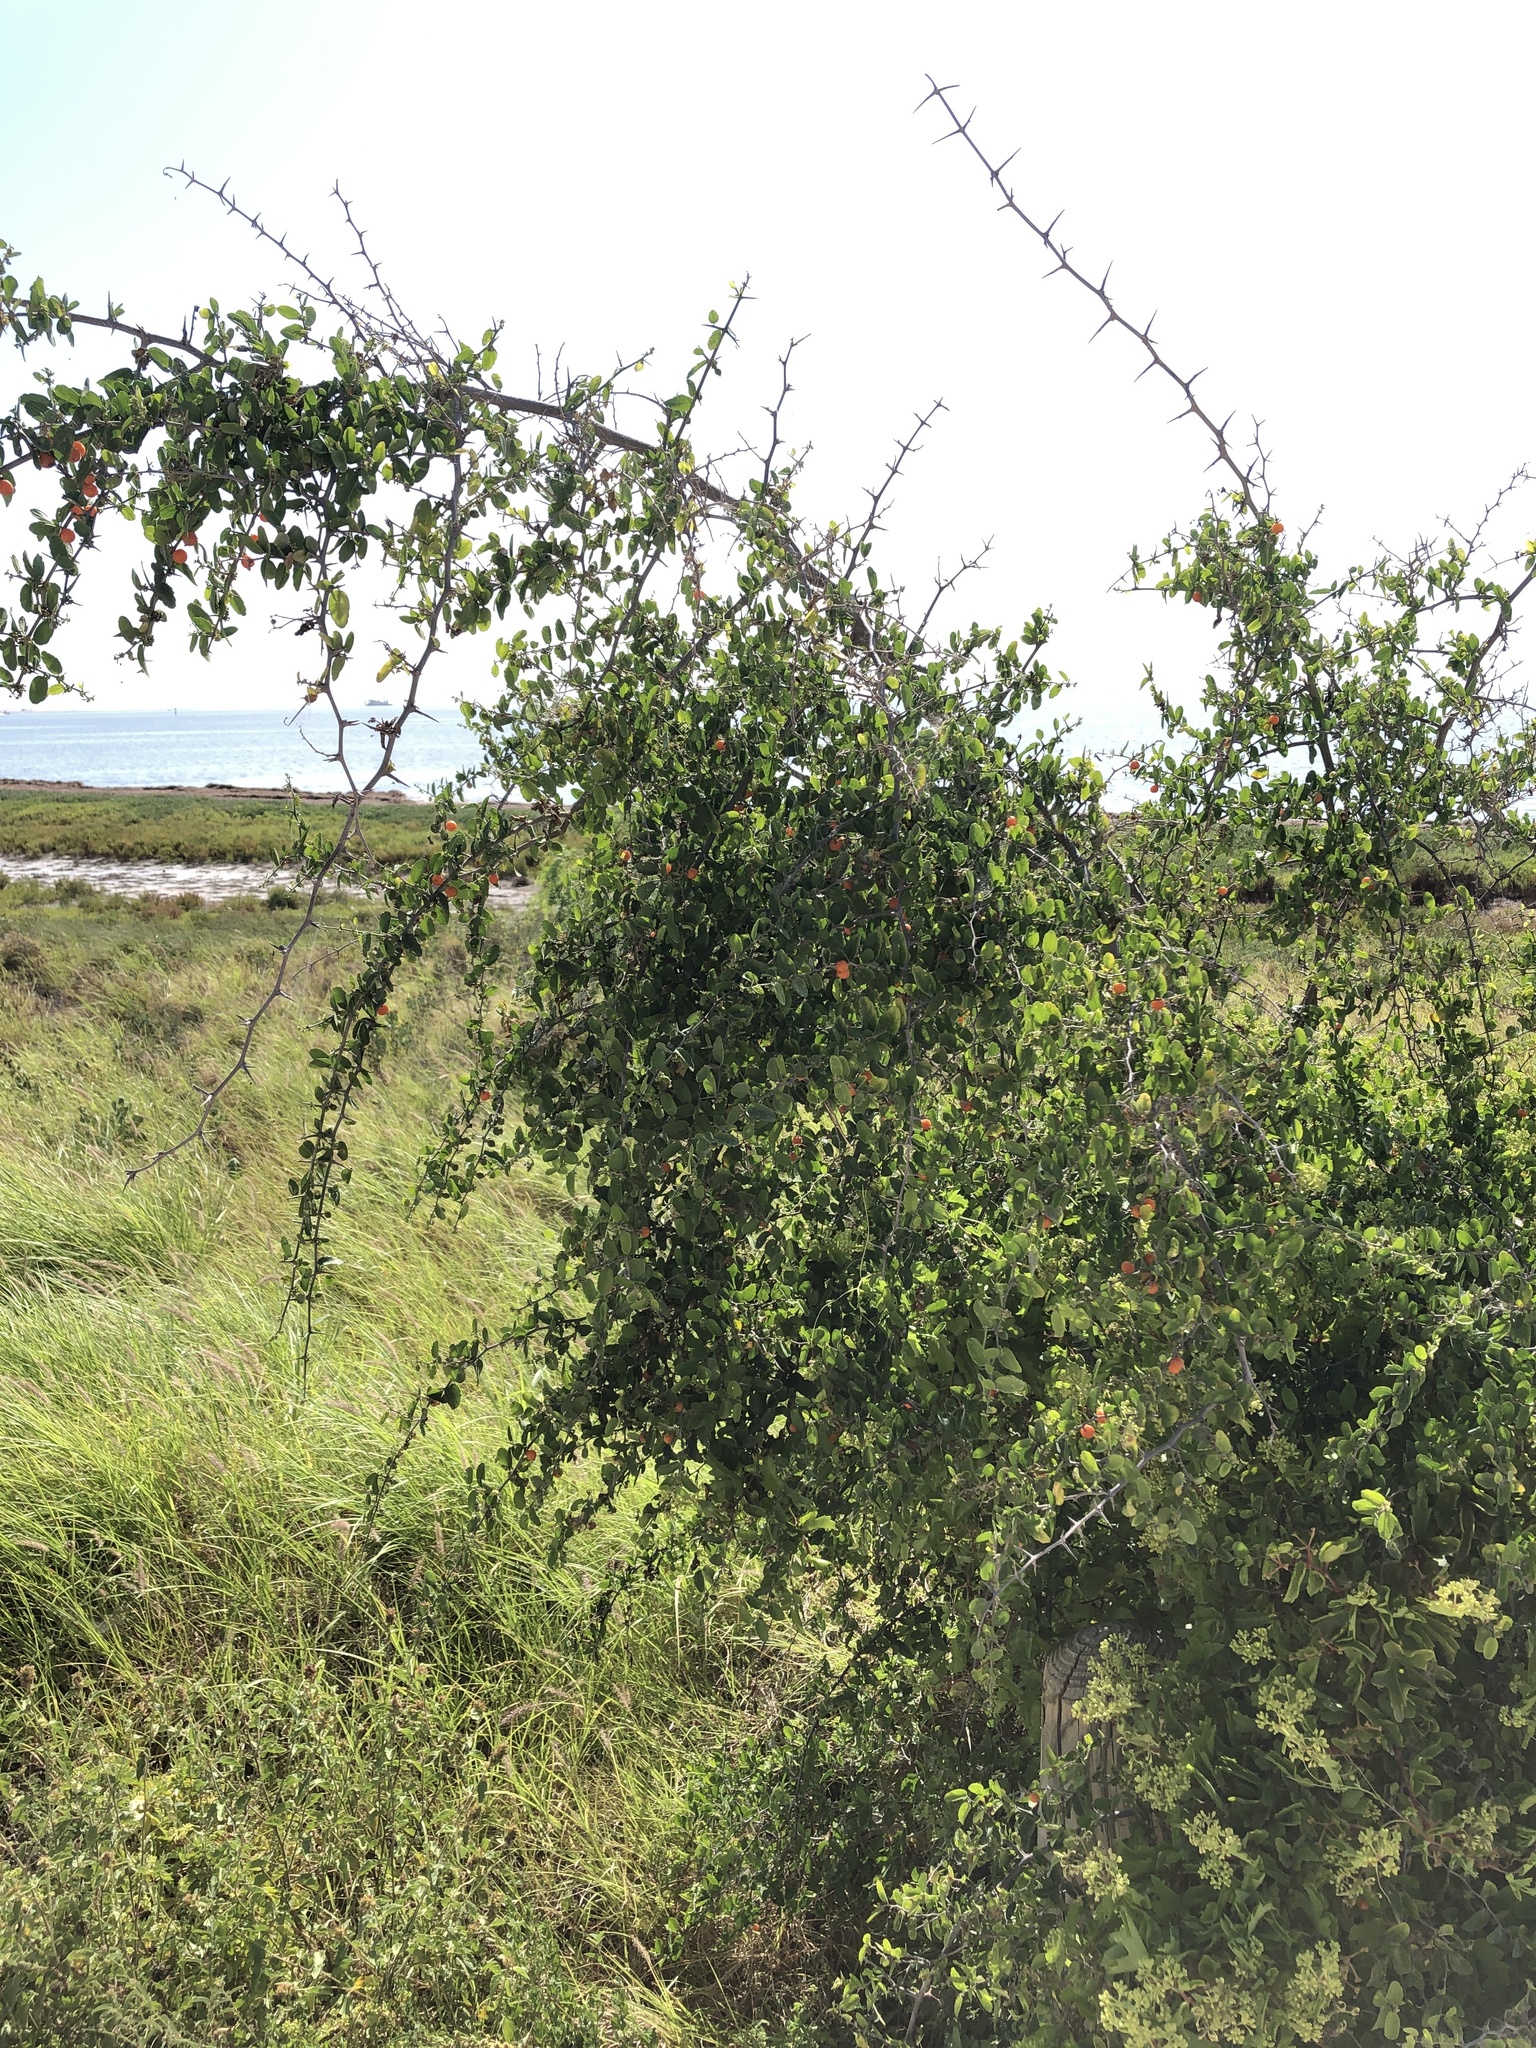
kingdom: Plantae
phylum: Tracheophyta
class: Magnoliopsida
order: Rosales
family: Cannabaceae
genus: Celtis
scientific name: Celtis pallida
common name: Desert hackberry
